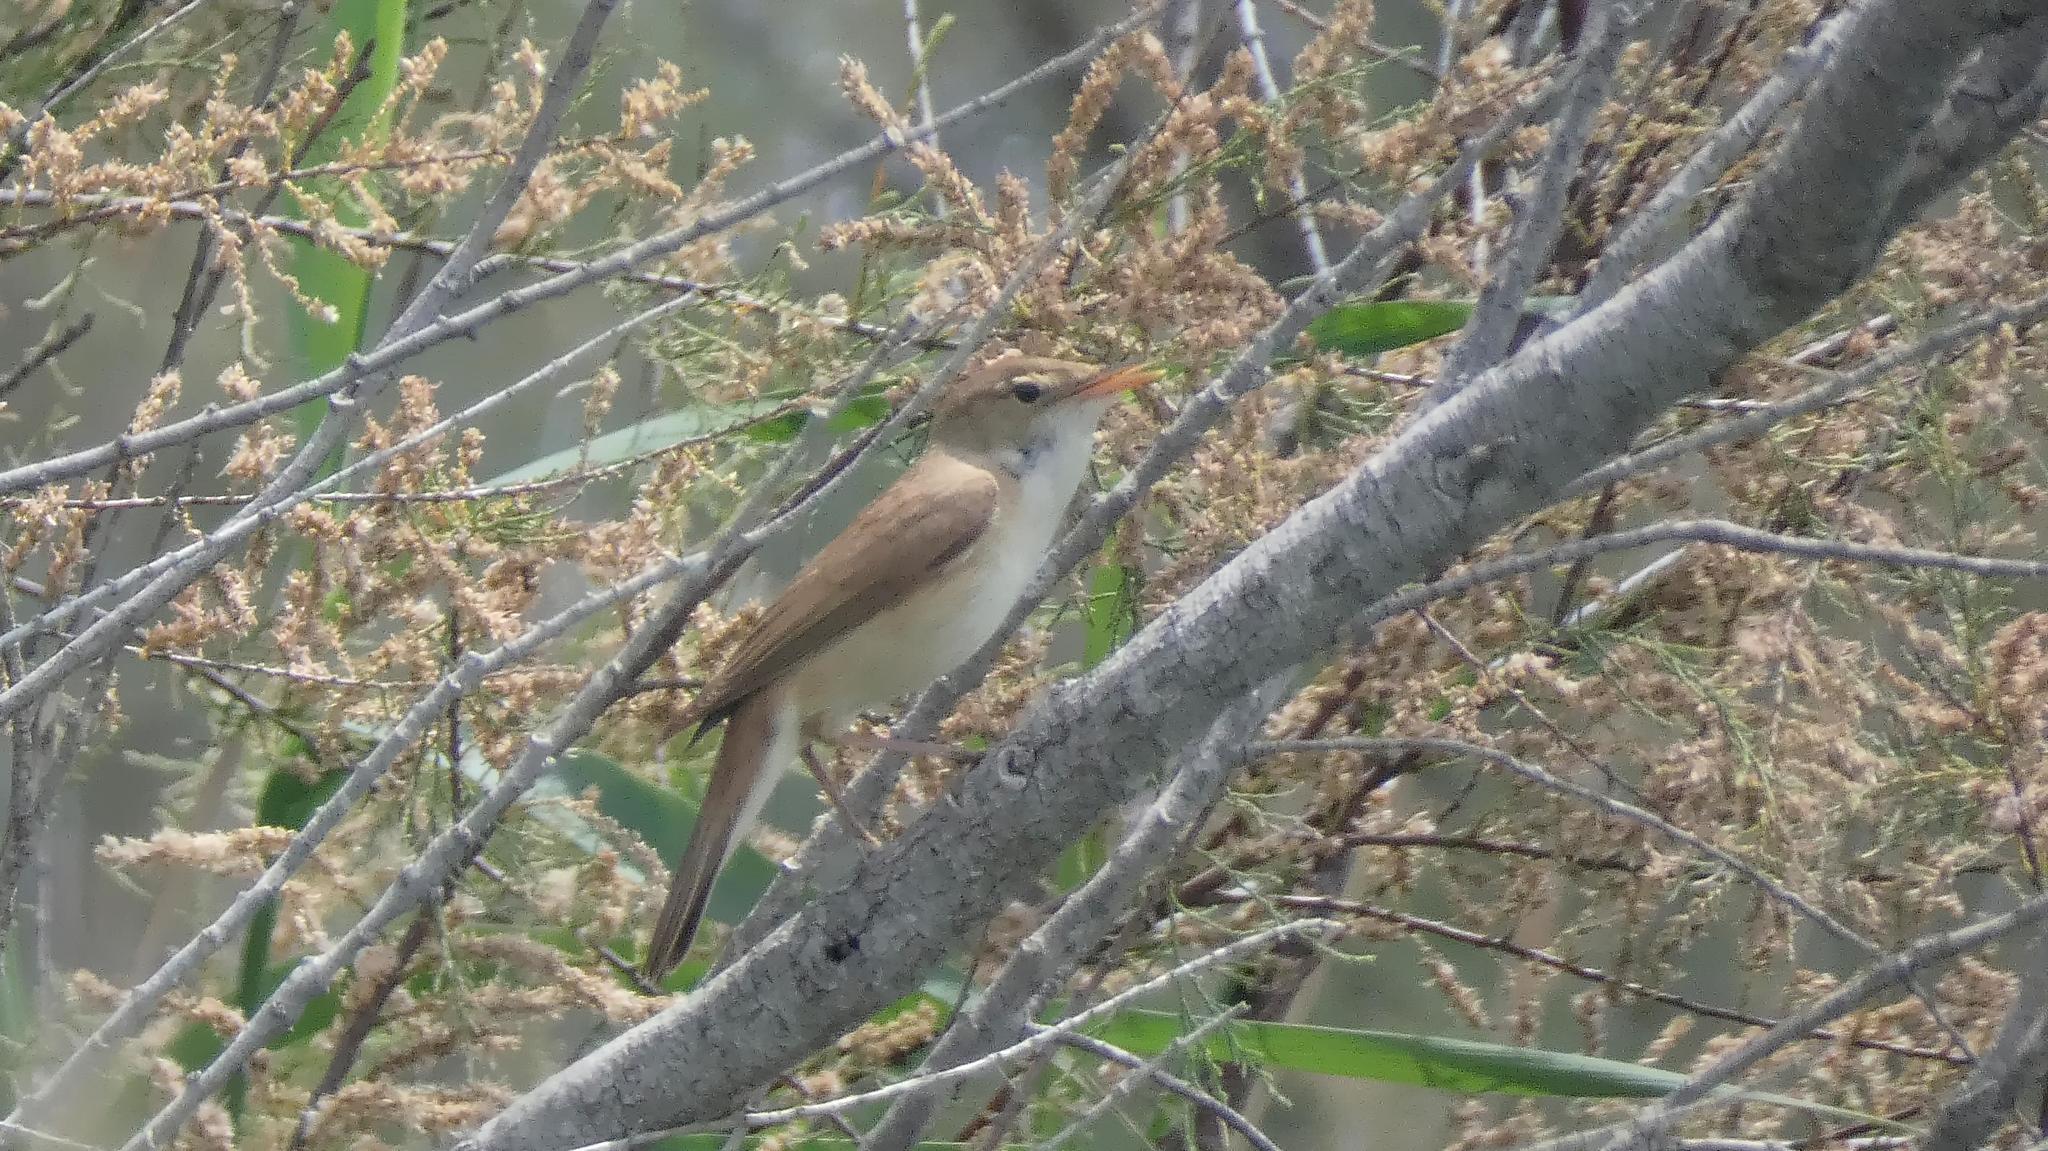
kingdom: Animalia
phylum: Chordata
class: Aves
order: Passeriformes
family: Acrocephalidae
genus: Acrocephalus
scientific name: Acrocephalus scirpaceus
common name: Eurasian reed warbler
